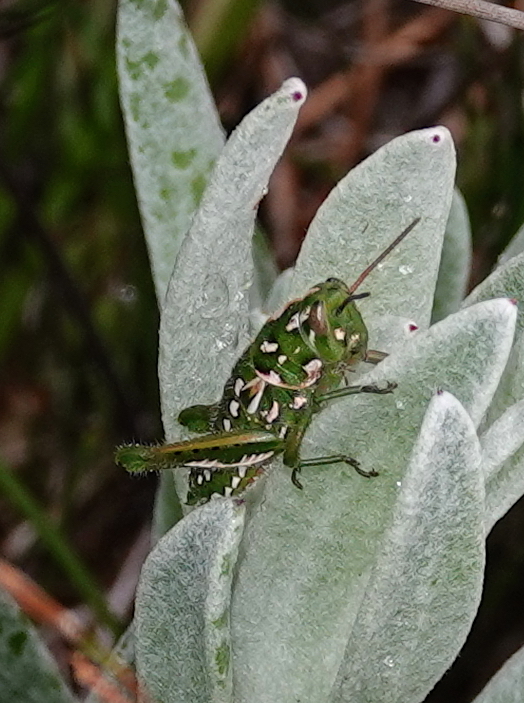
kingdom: Animalia
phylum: Arthropoda
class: Insecta
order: Orthoptera
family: Acrididae
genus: Frontifissia
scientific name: Frontifissia elegans
